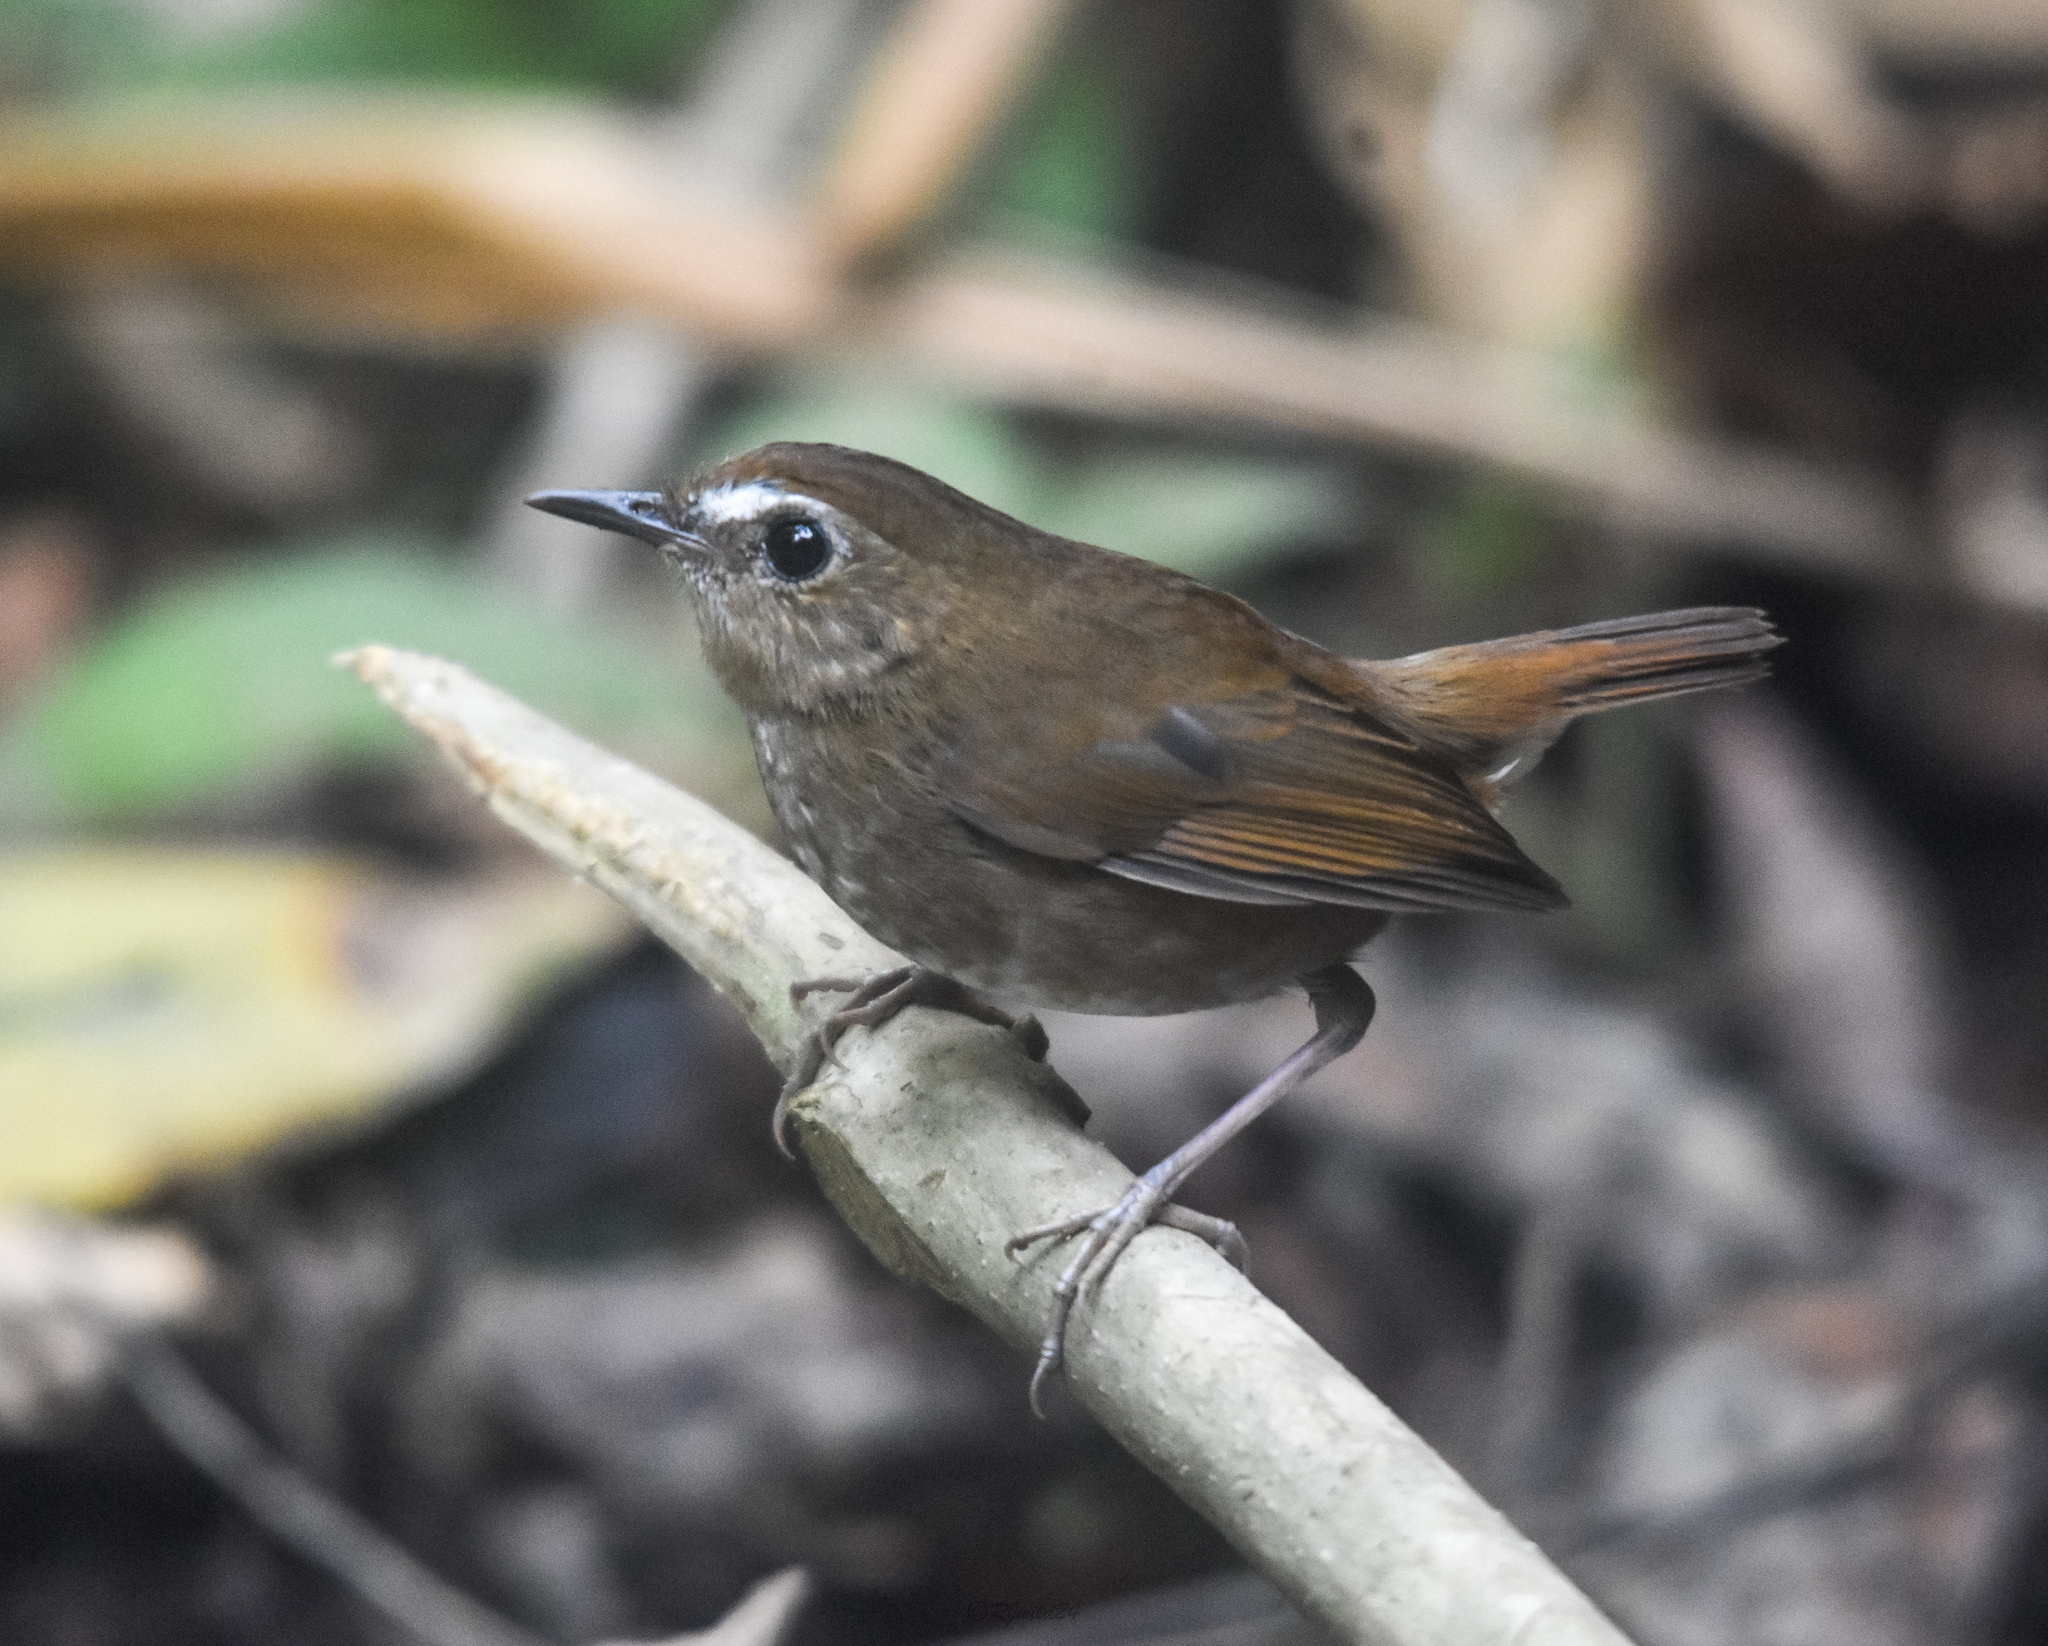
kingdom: Animalia
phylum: Chordata
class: Aves
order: Passeriformes
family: Muscicapidae
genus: Brachypteryx
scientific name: Brachypteryx leucophris
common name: Lesser shortwing
